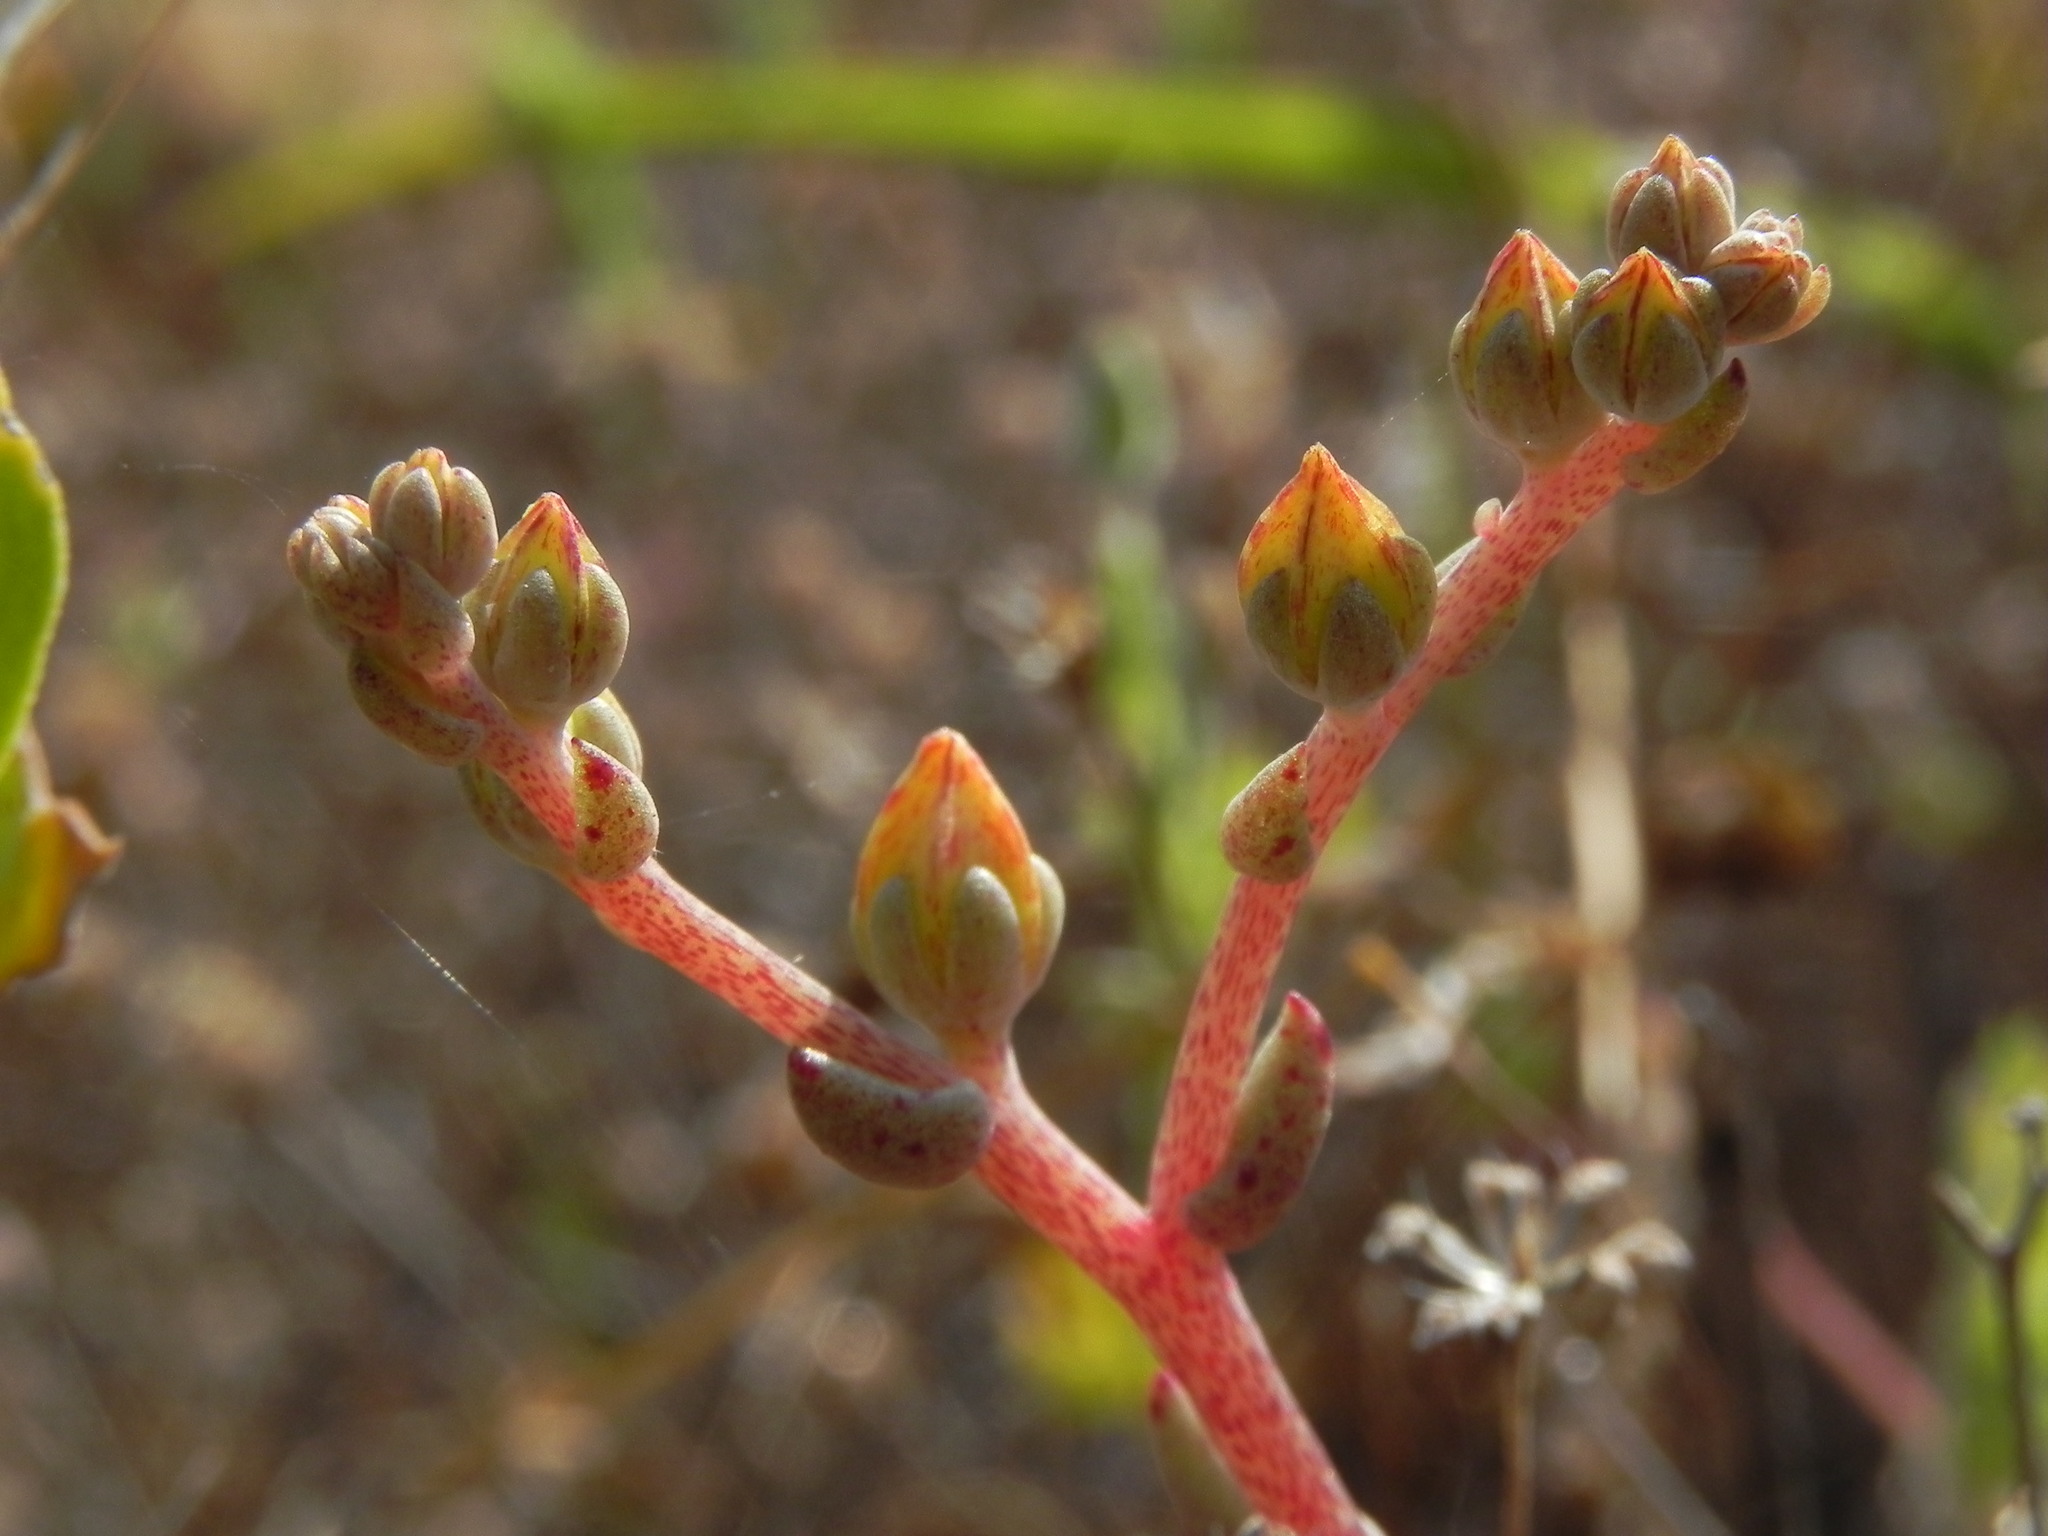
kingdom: Plantae
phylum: Tracheophyta
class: Magnoliopsida
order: Saxifragales
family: Crassulaceae
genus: Dudleya
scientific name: Dudleya variegata
